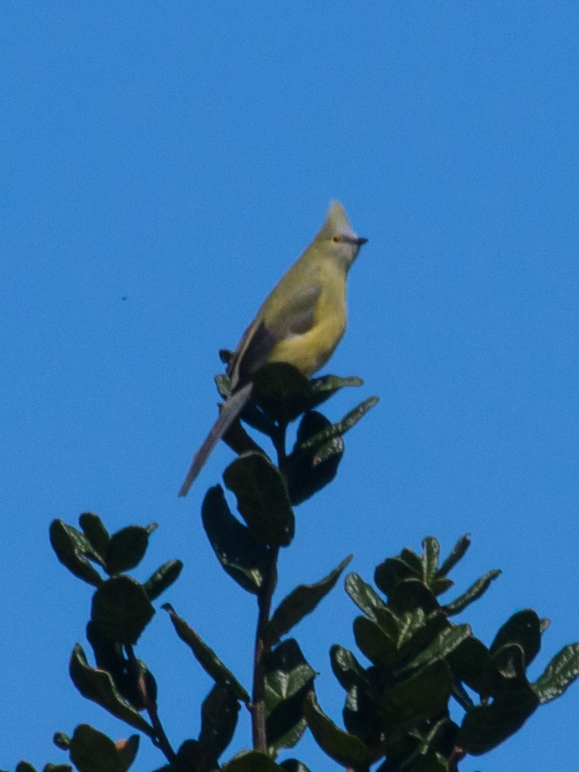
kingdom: Animalia
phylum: Chordata
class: Aves
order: Passeriformes
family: Ptilogonatidae
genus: Ptilogonys
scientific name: Ptilogonys caudatus
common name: Long-tailed silky-flycatcher
